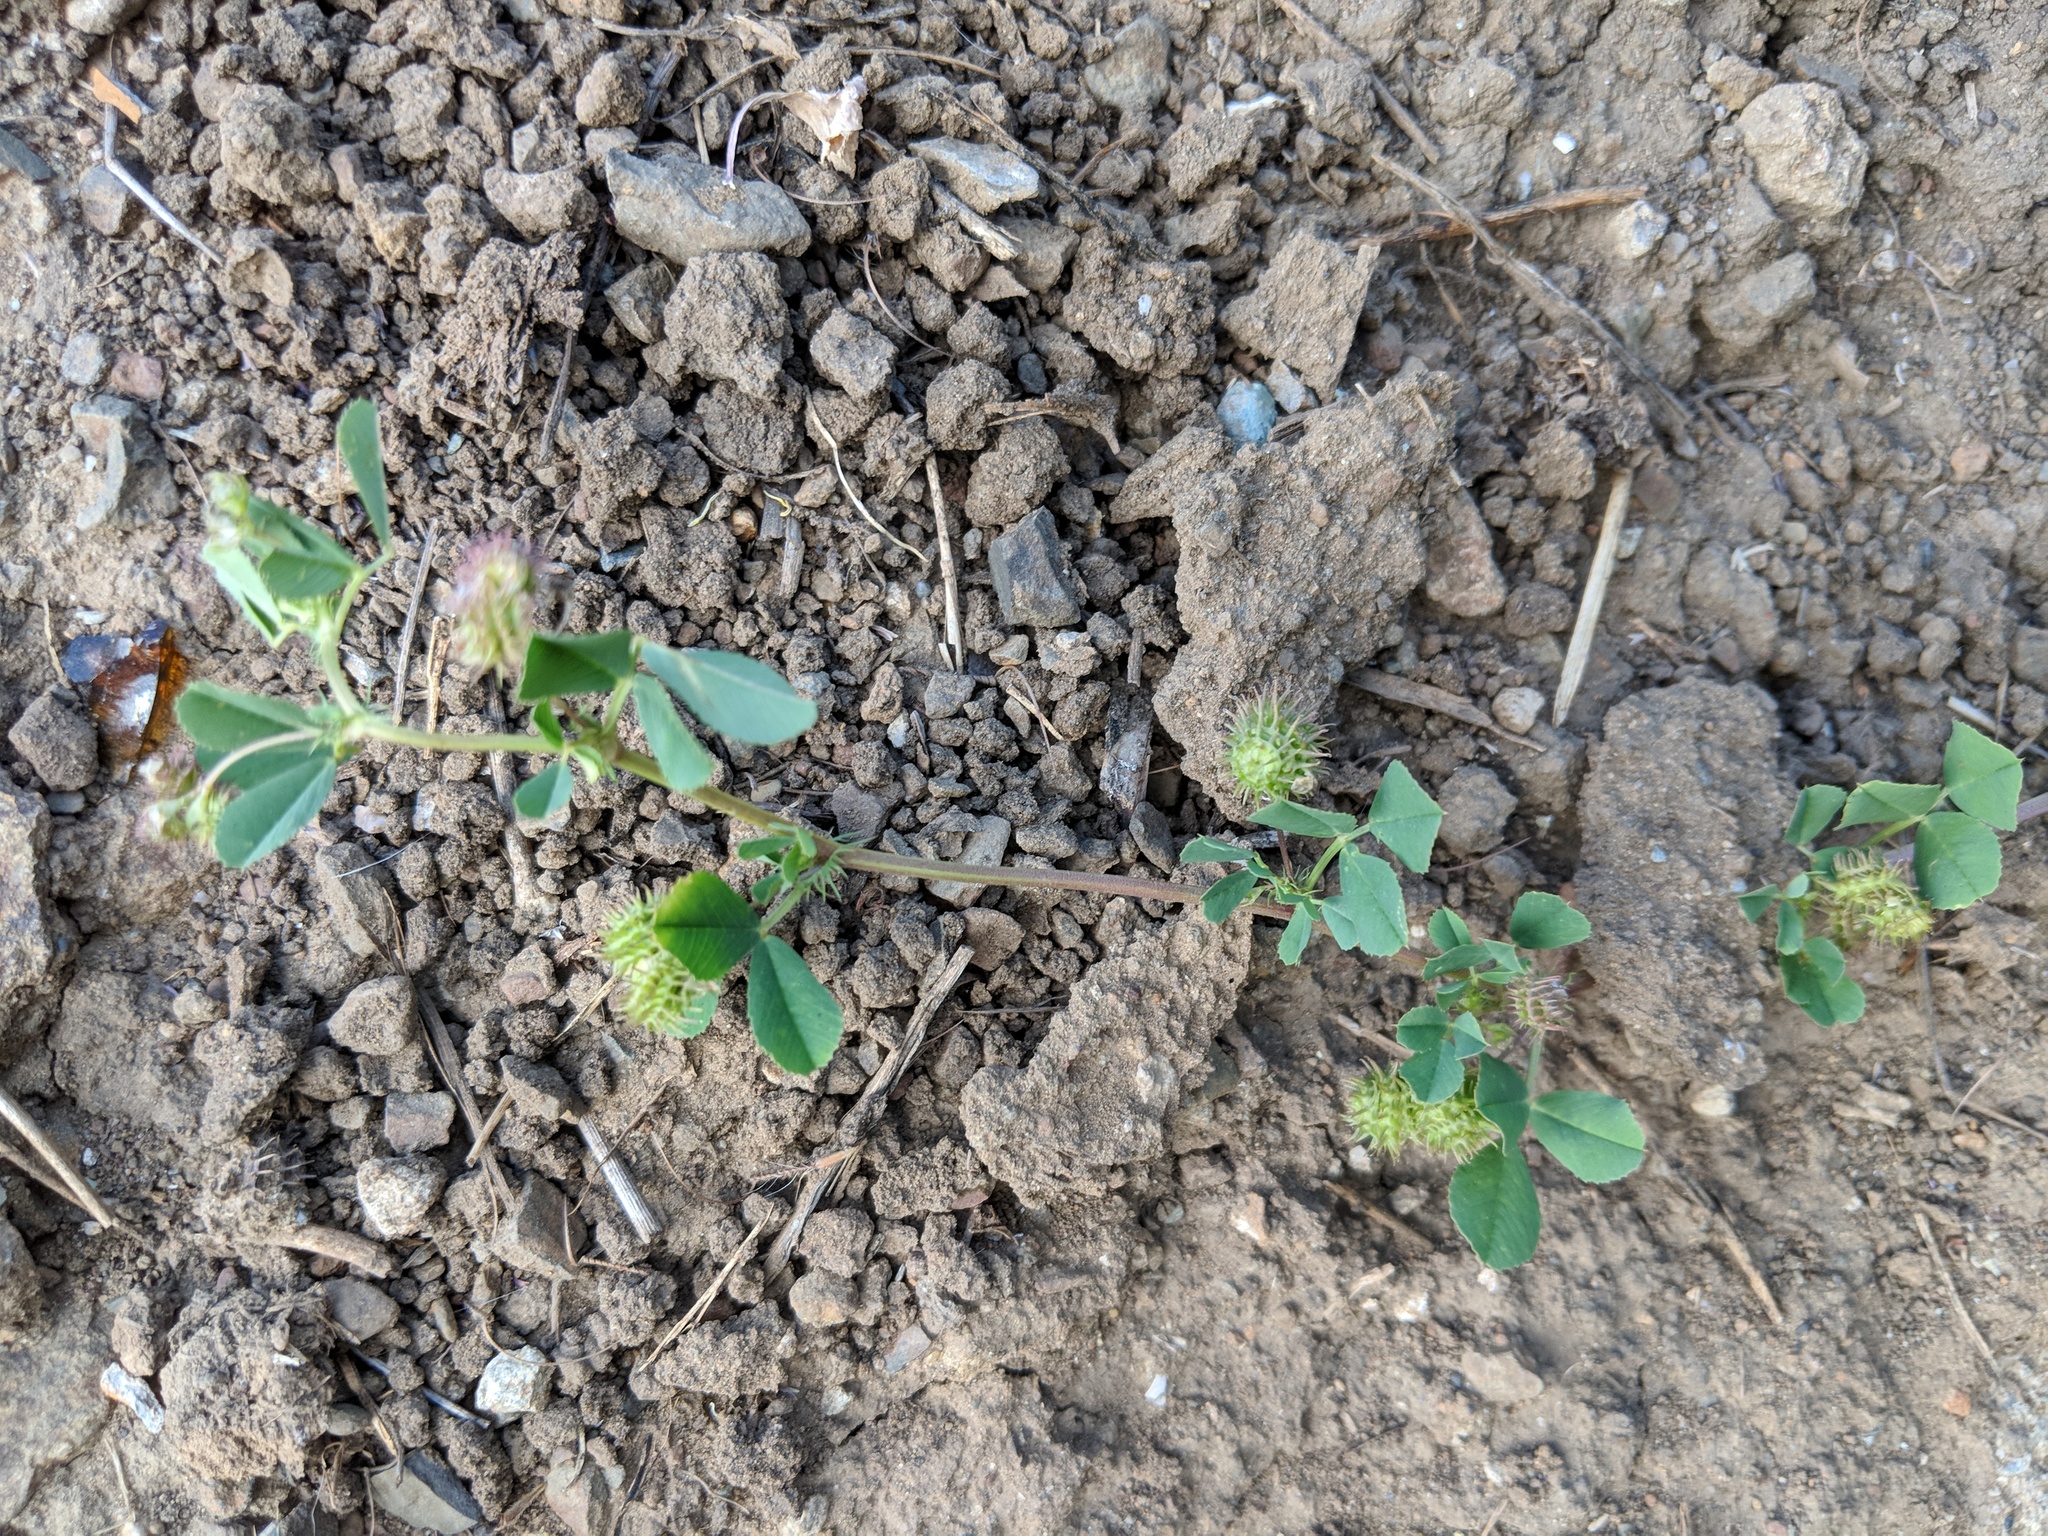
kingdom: Plantae
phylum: Tracheophyta
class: Magnoliopsida
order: Fabales
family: Fabaceae
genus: Medicago
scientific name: Medicago polymorpha
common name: Burclover
